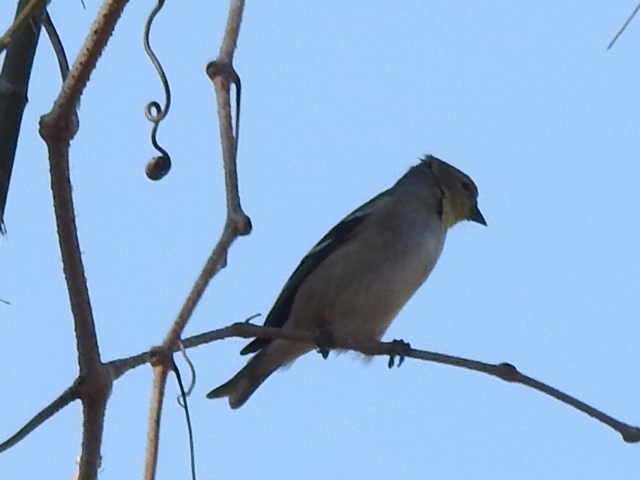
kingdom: Animalia
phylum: Chordata
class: Aves
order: Passeriformes
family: Fringillidae
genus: Spinus
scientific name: Spinus tristis
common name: American goldfinch
